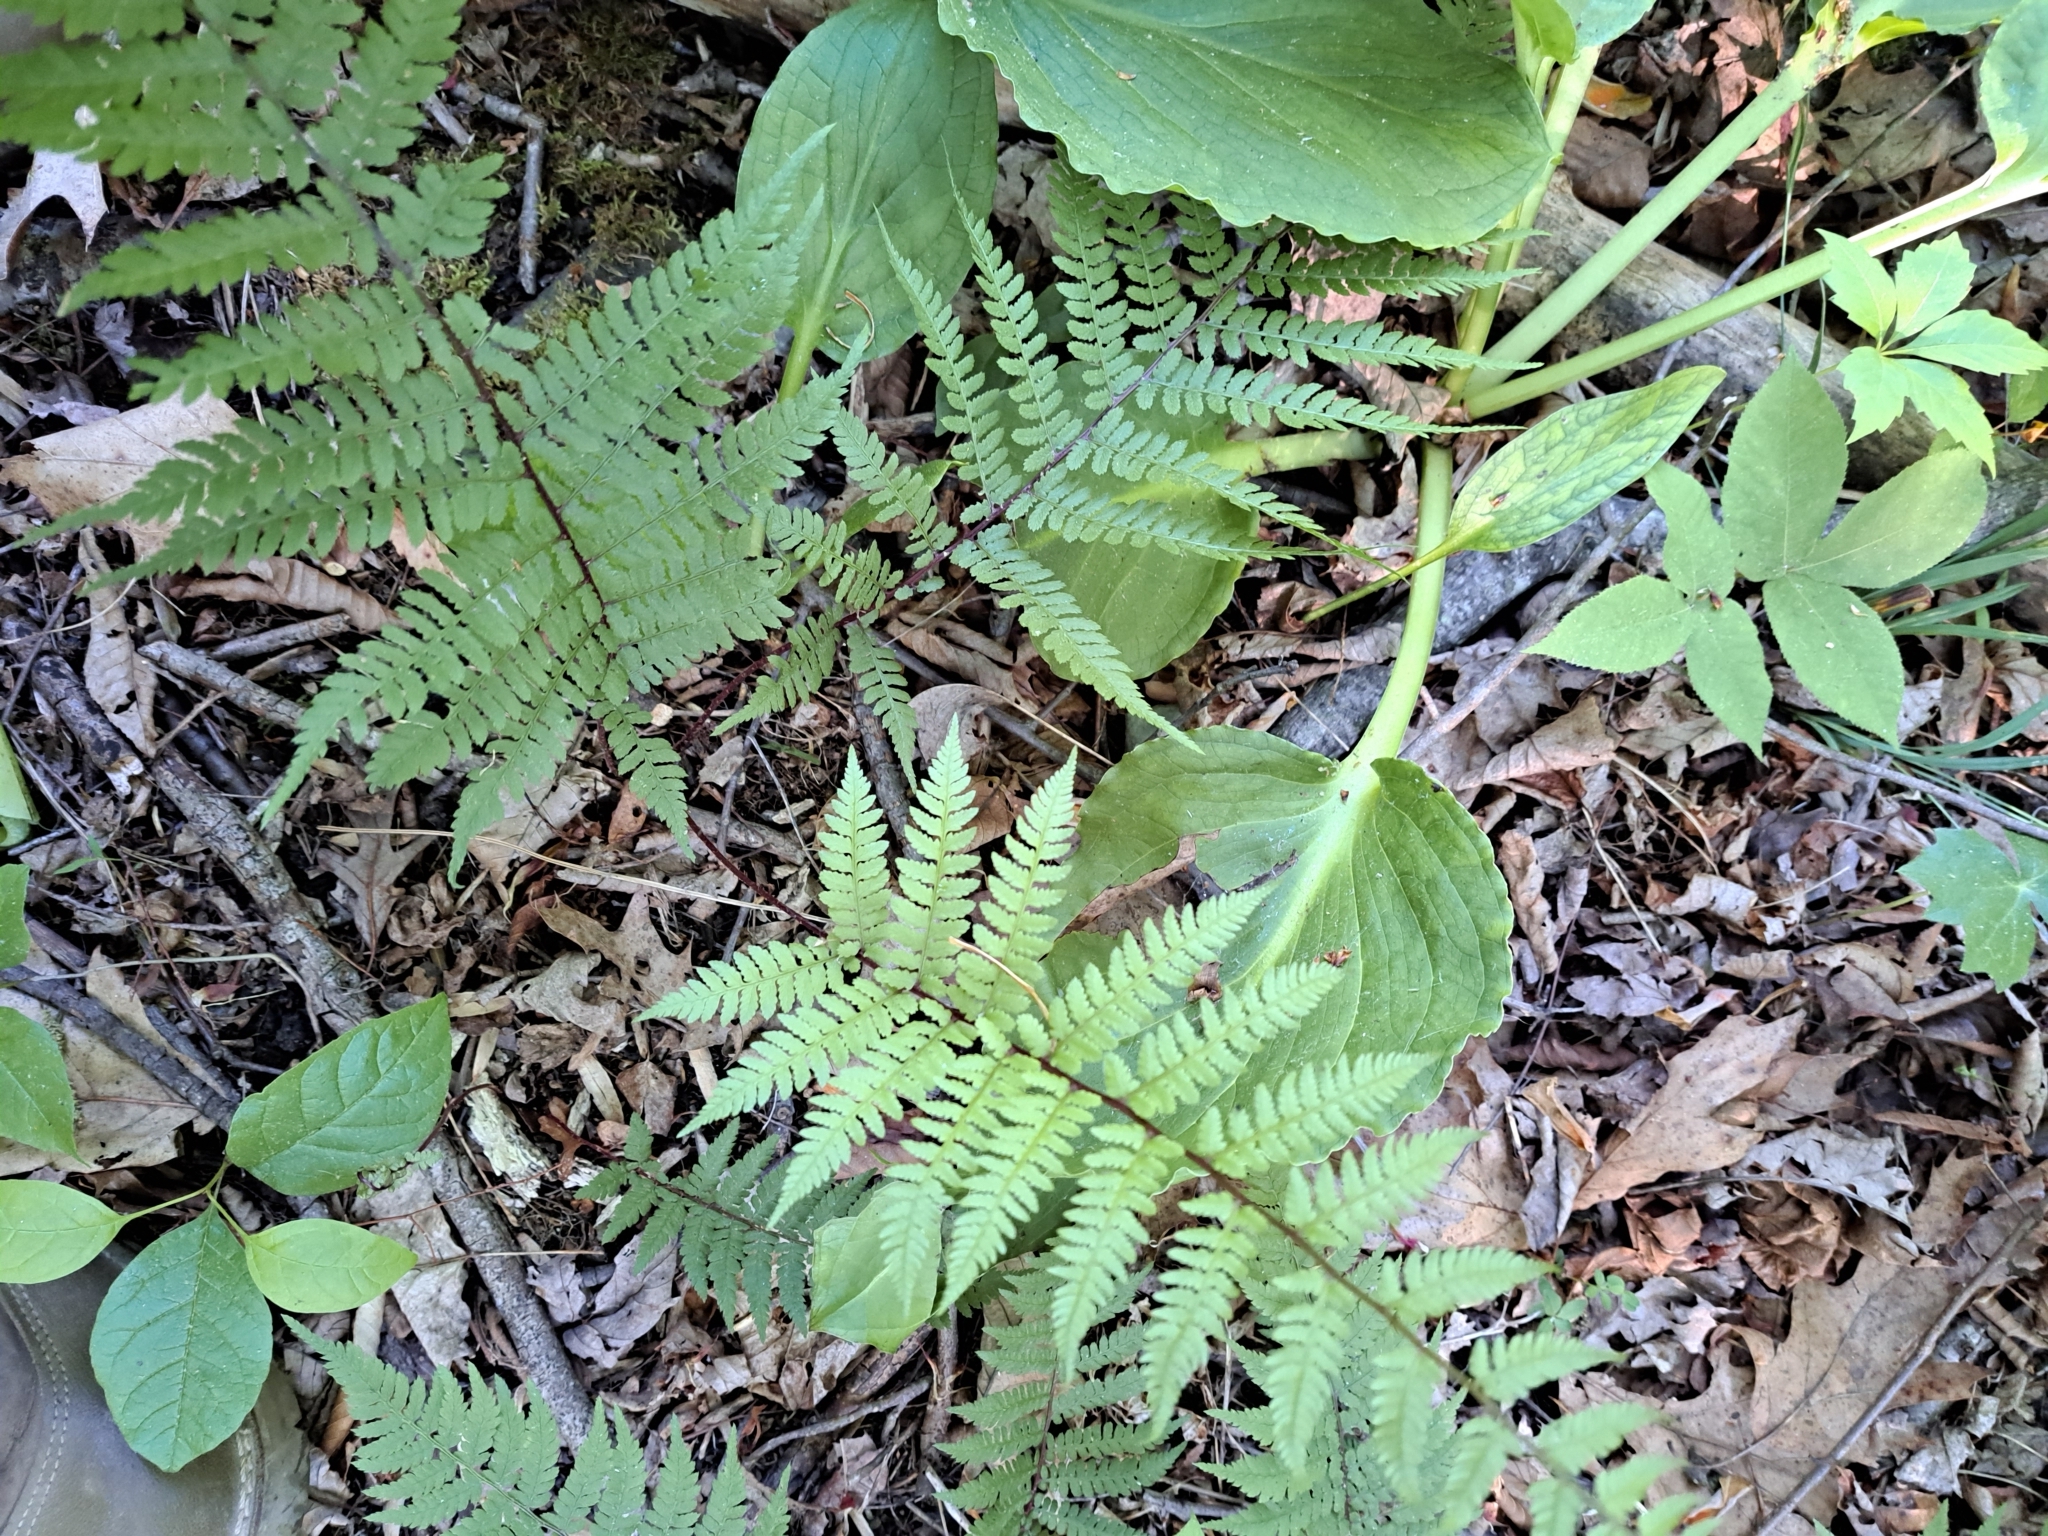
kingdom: Plantae
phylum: Tracheophyta
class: Polypodiopsida
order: Polypodiales
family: Athyriaceae
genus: Athyrium
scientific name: Athyrium asplenioides
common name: Southern lady fern
